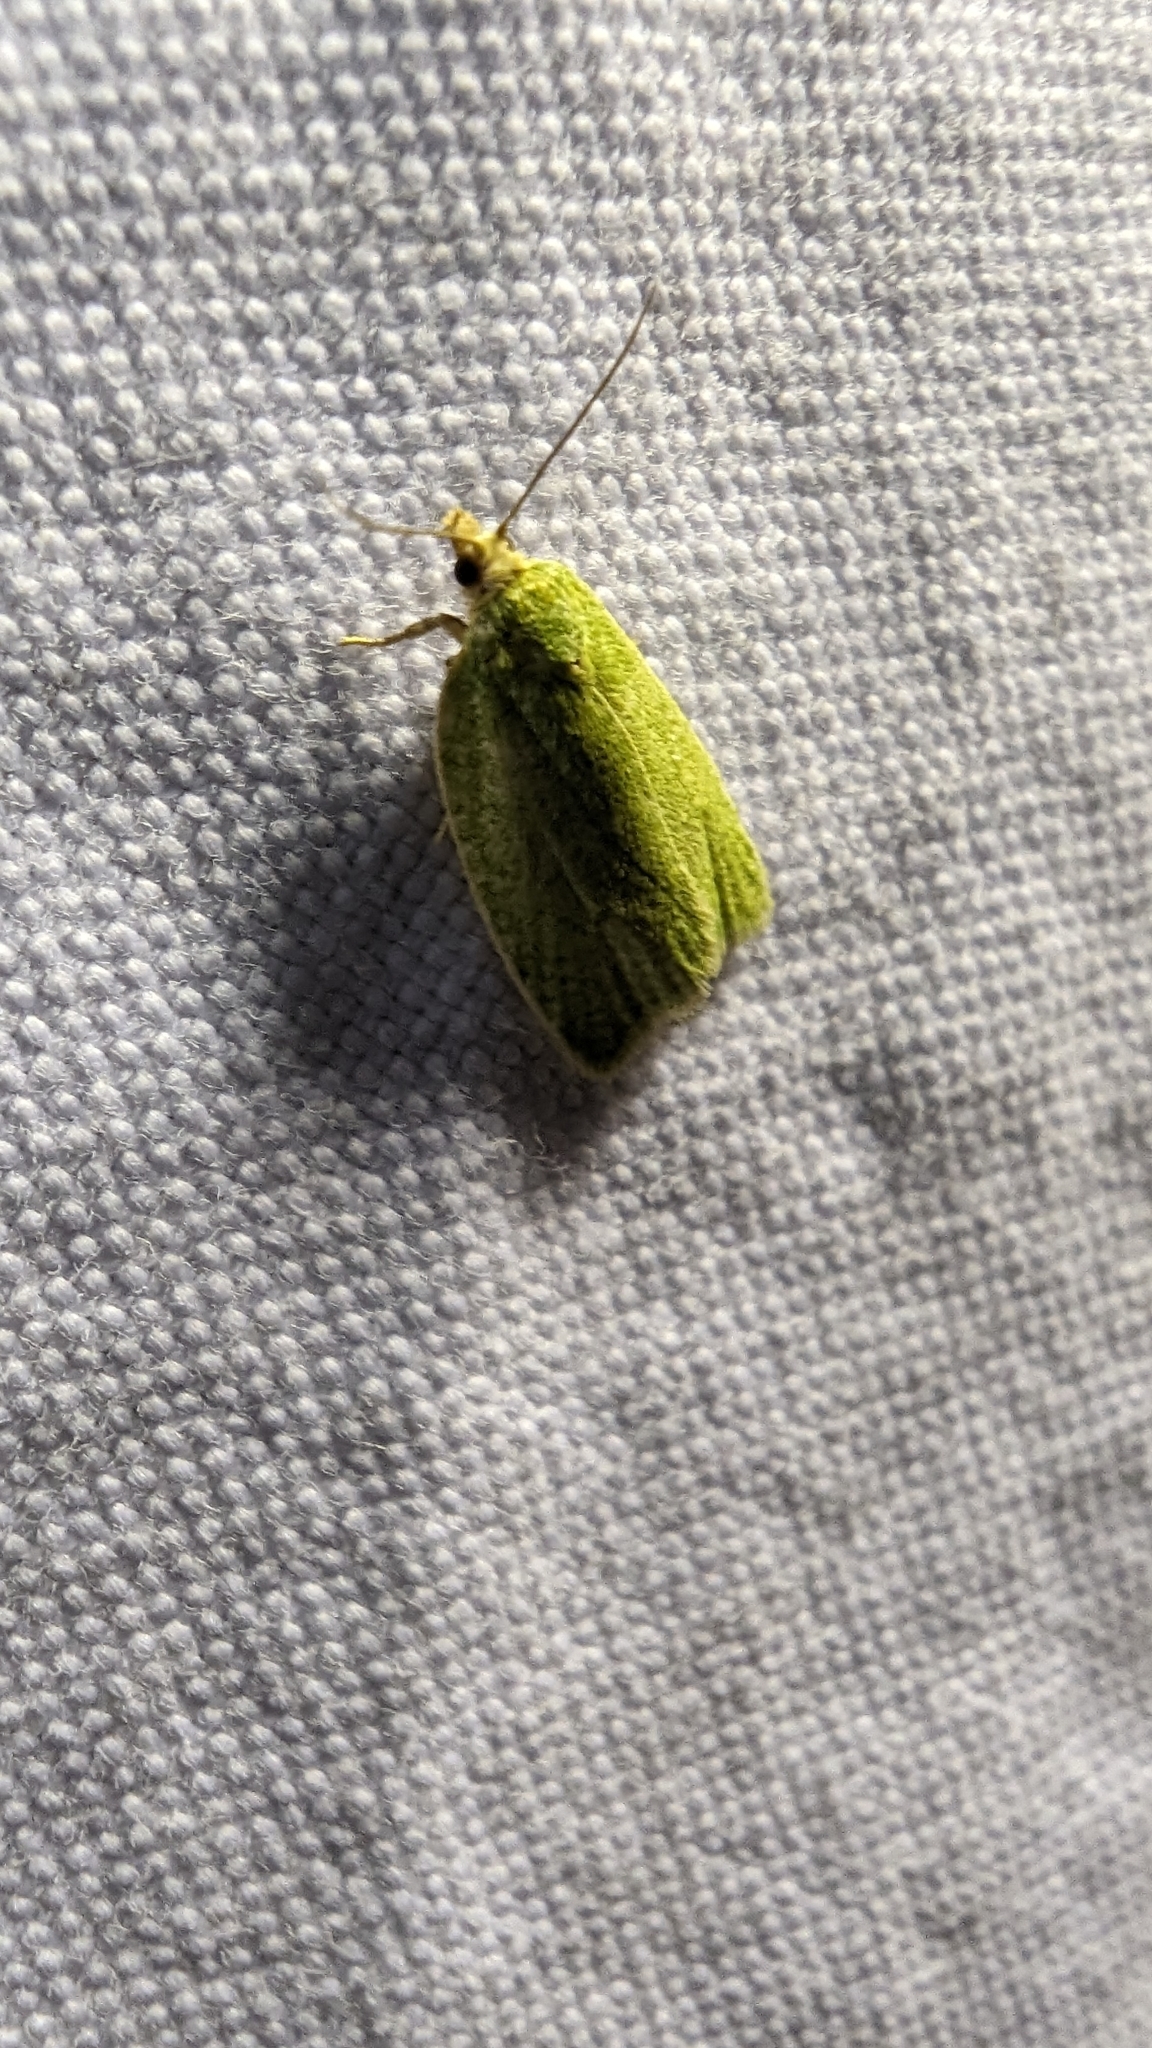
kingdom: Animalia
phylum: Arthropoda
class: Insecta
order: Lepidoptera
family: Tortricidae
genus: Tortrix
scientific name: Tortrix viridana
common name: Green oak tortrix
